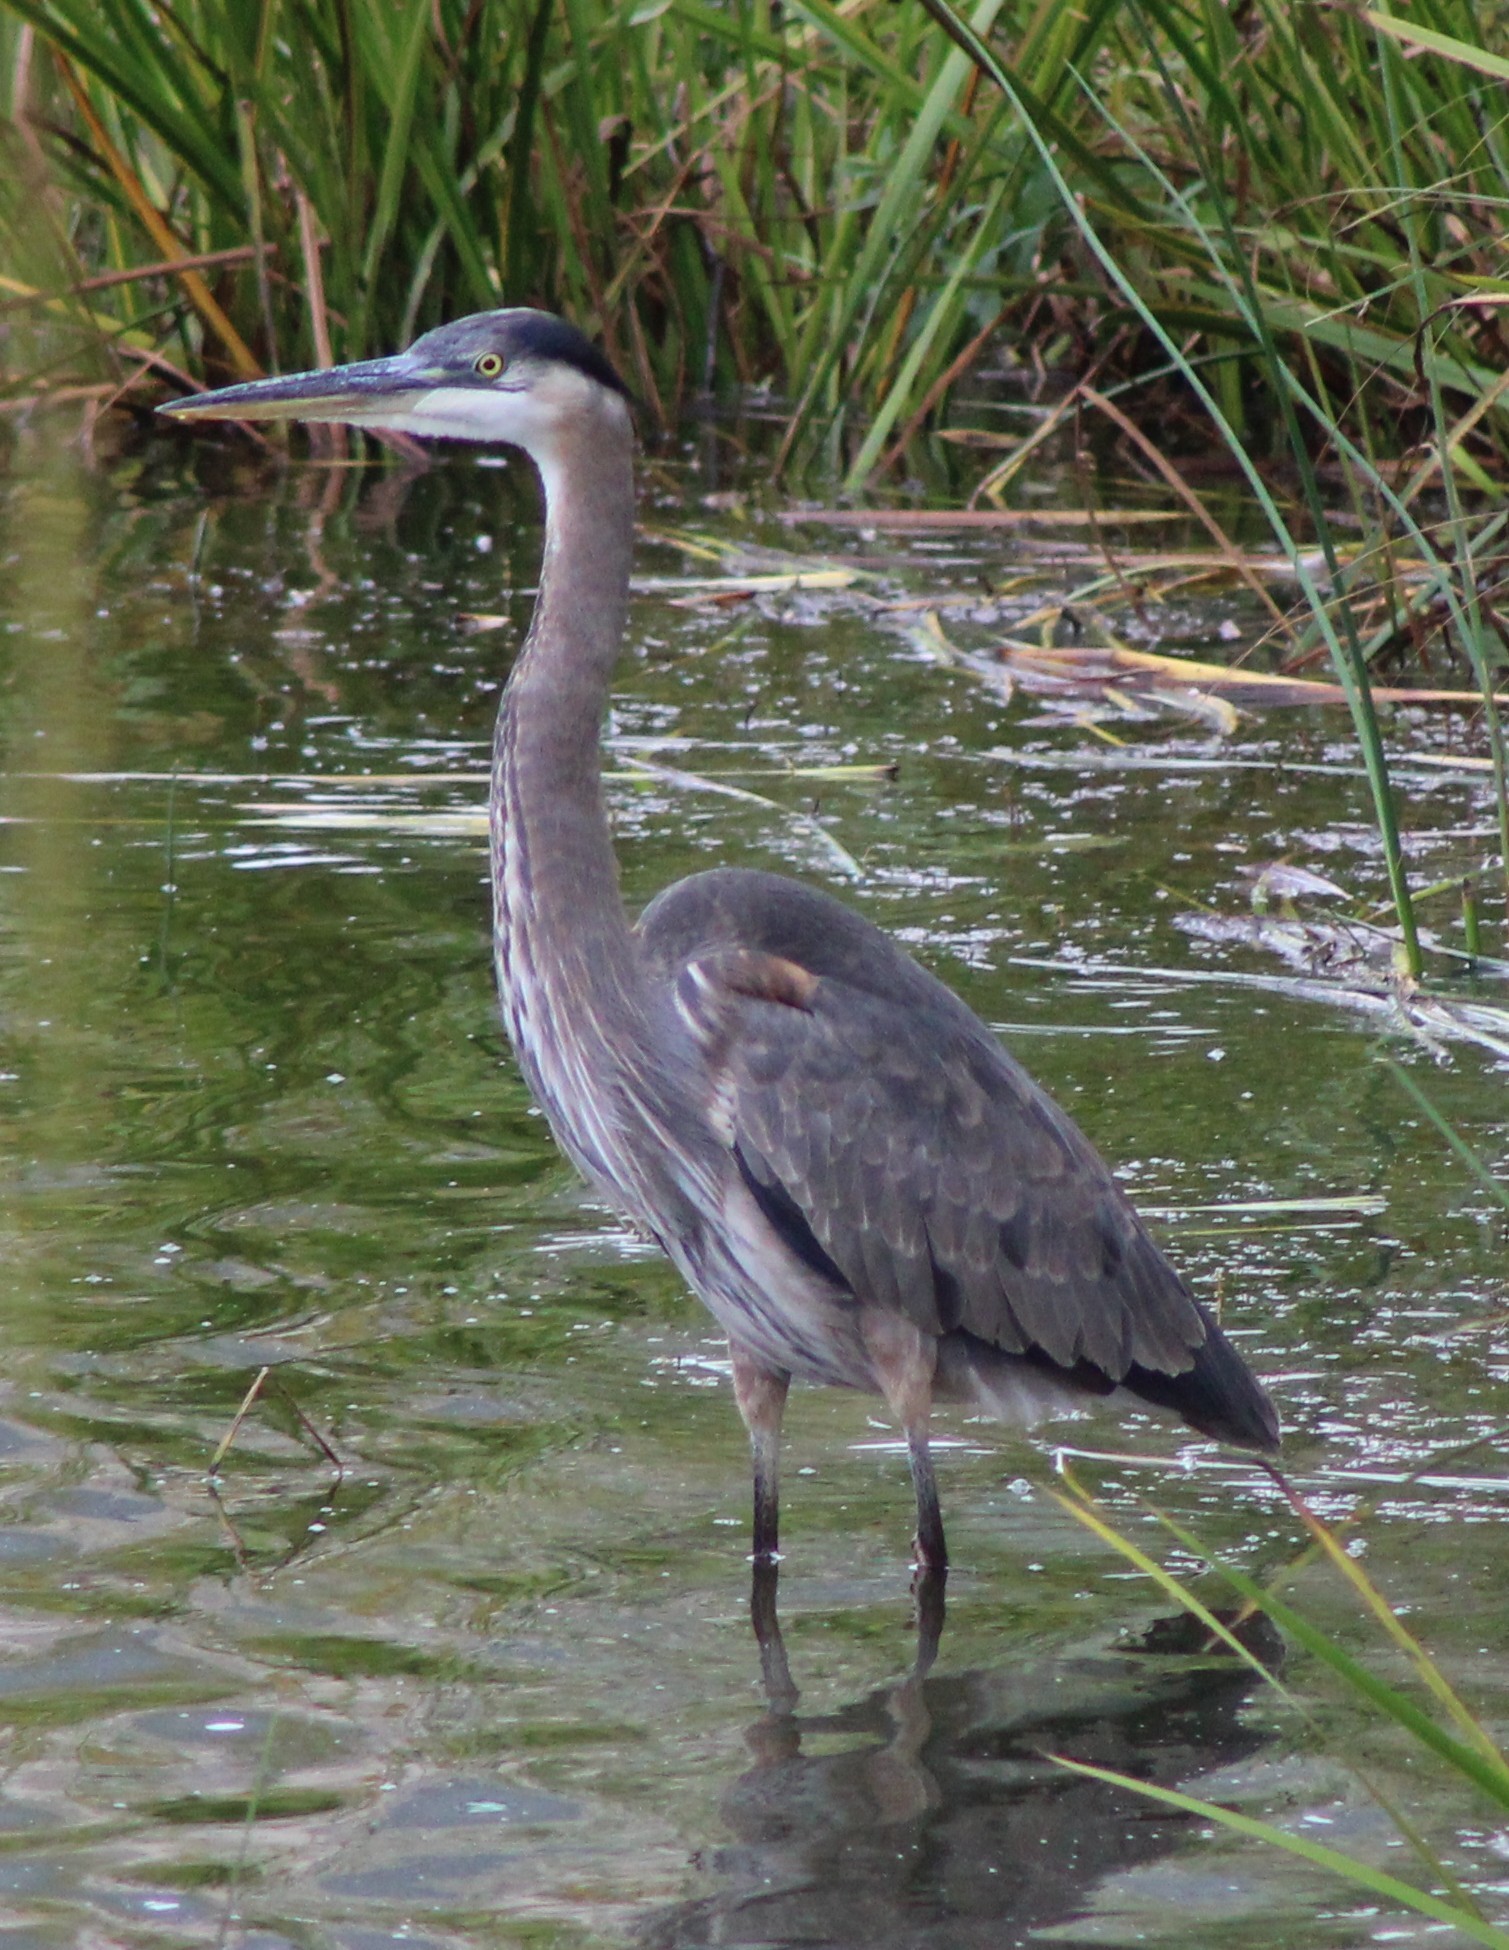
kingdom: Animalia
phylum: Chordata
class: Aves
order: Pelecaniformes
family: Ardeidae
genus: Ardea
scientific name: Ardea herodias
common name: Great blue heron
